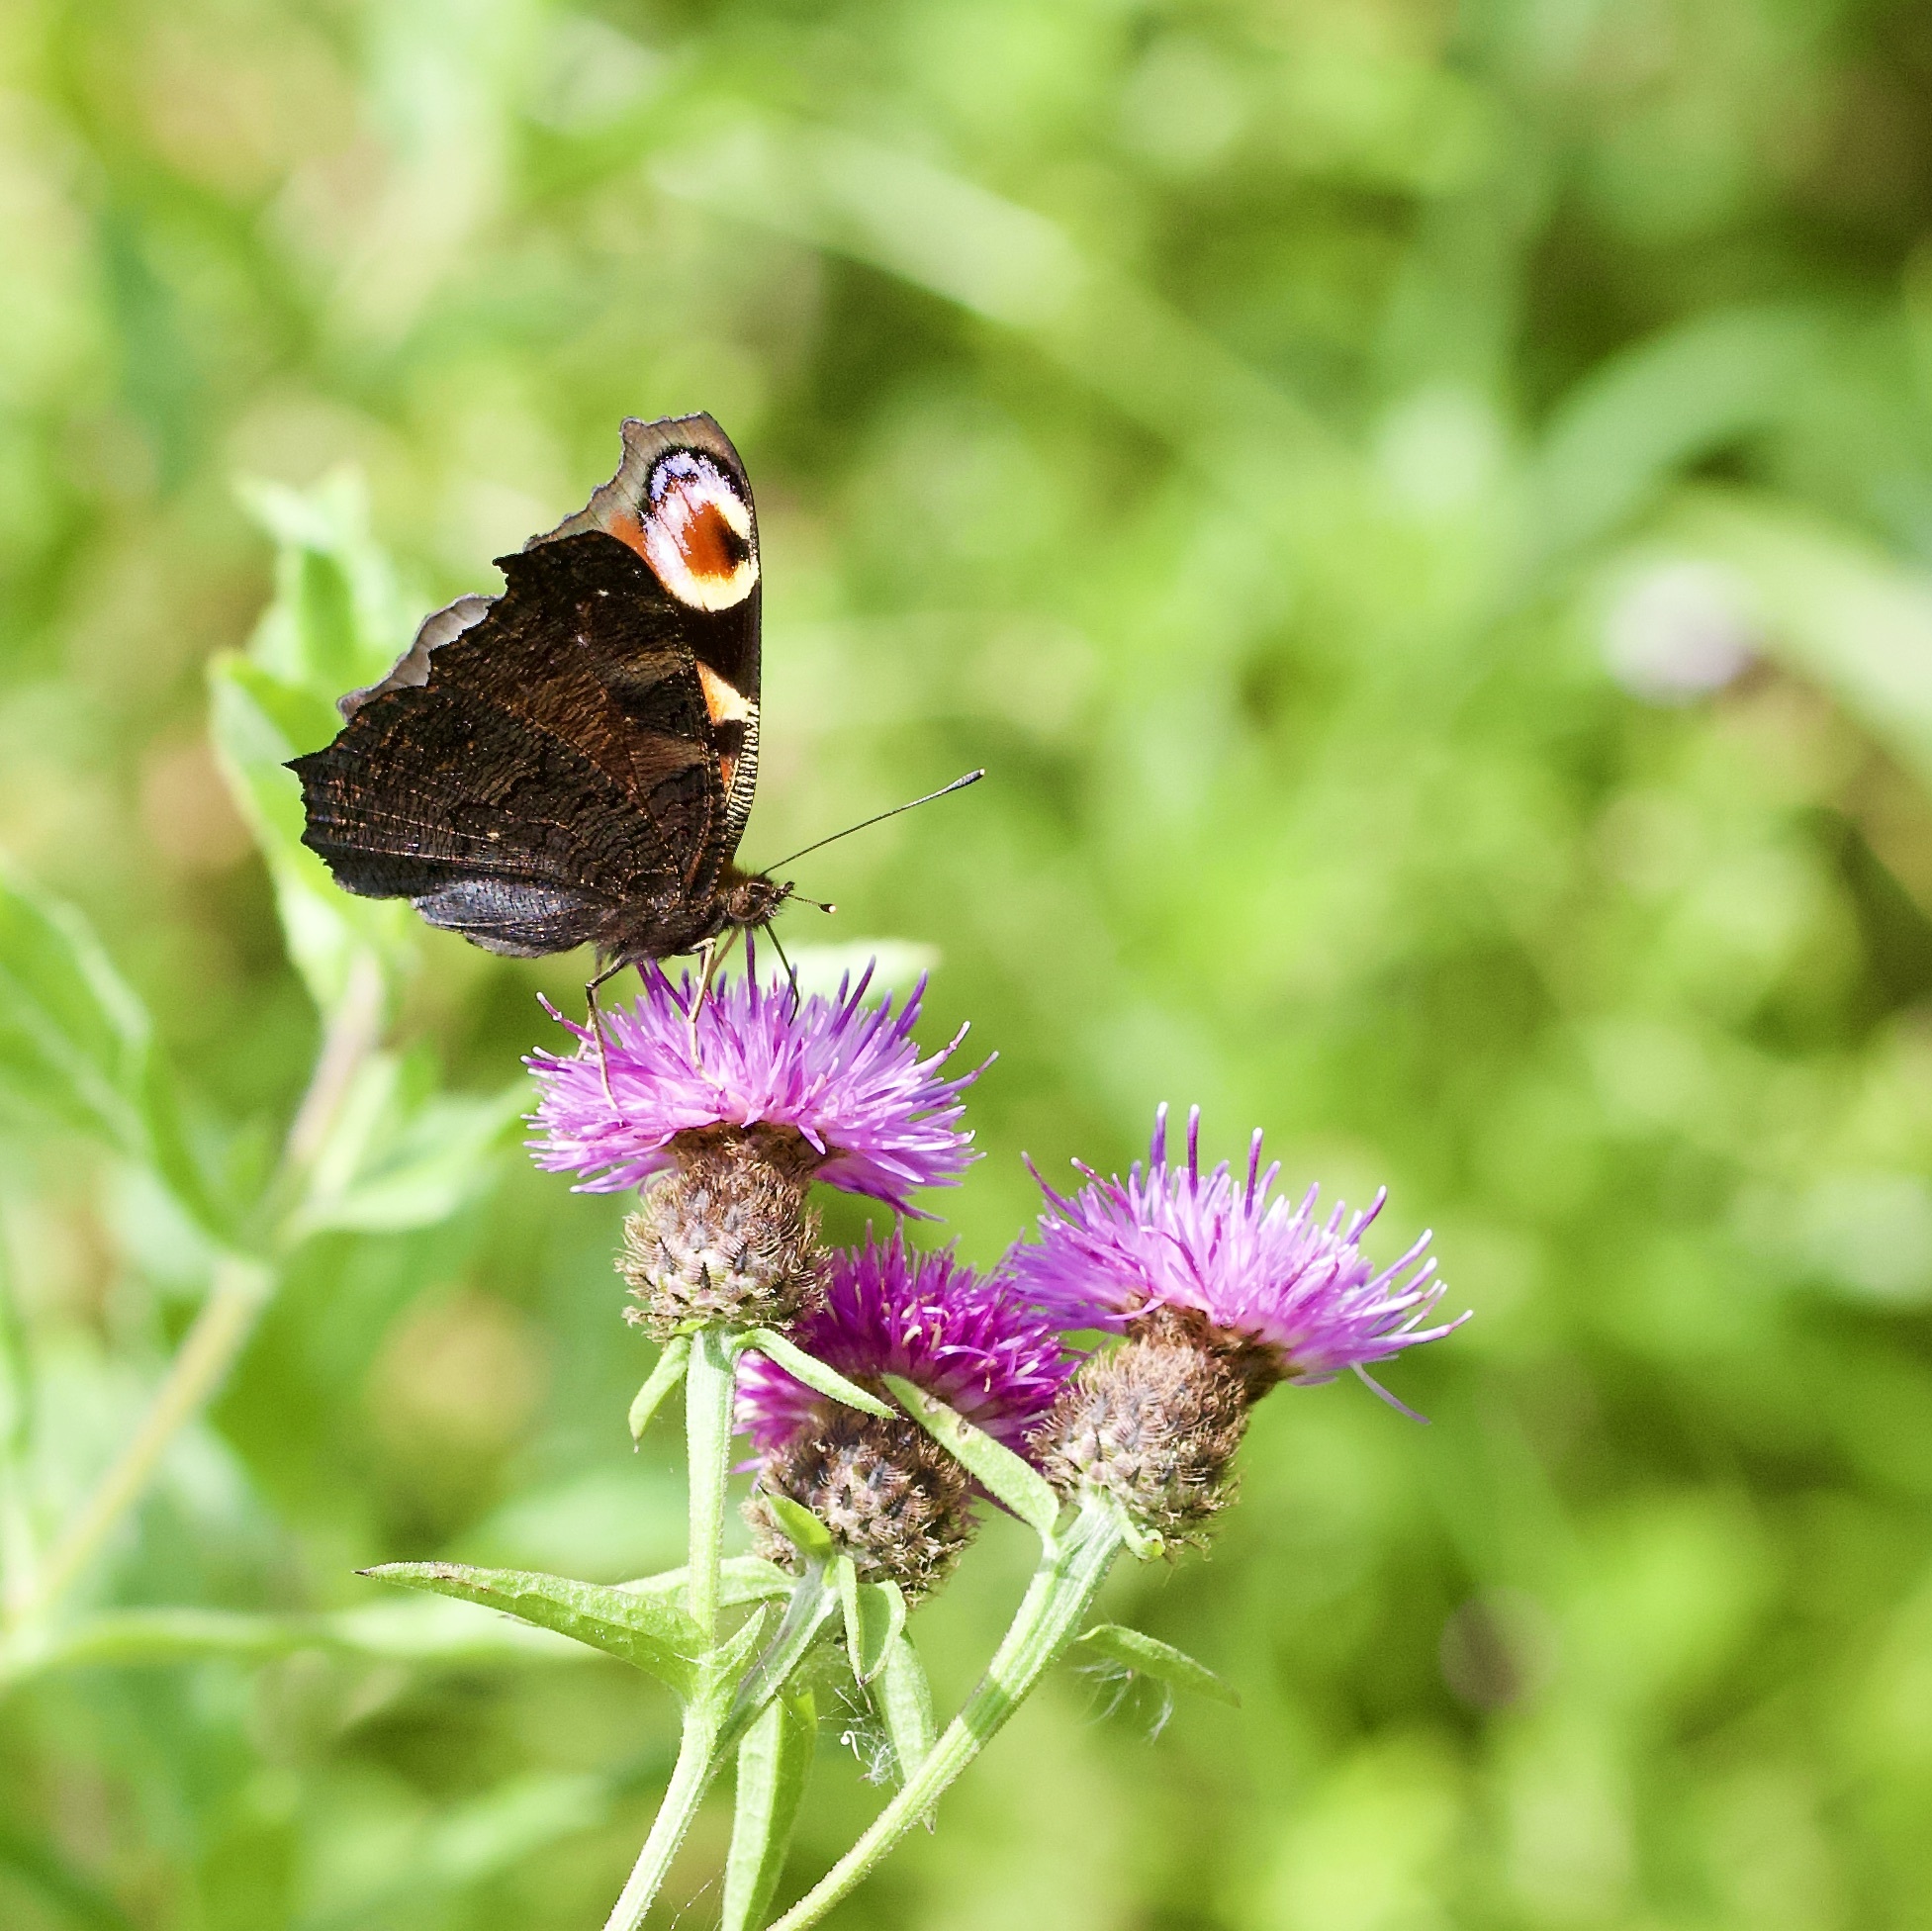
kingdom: Animalia
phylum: Arthropoda
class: Insecta
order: Lepidoptera
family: Nymphalidae
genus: Aglais
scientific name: Aglais io
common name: Peacock
